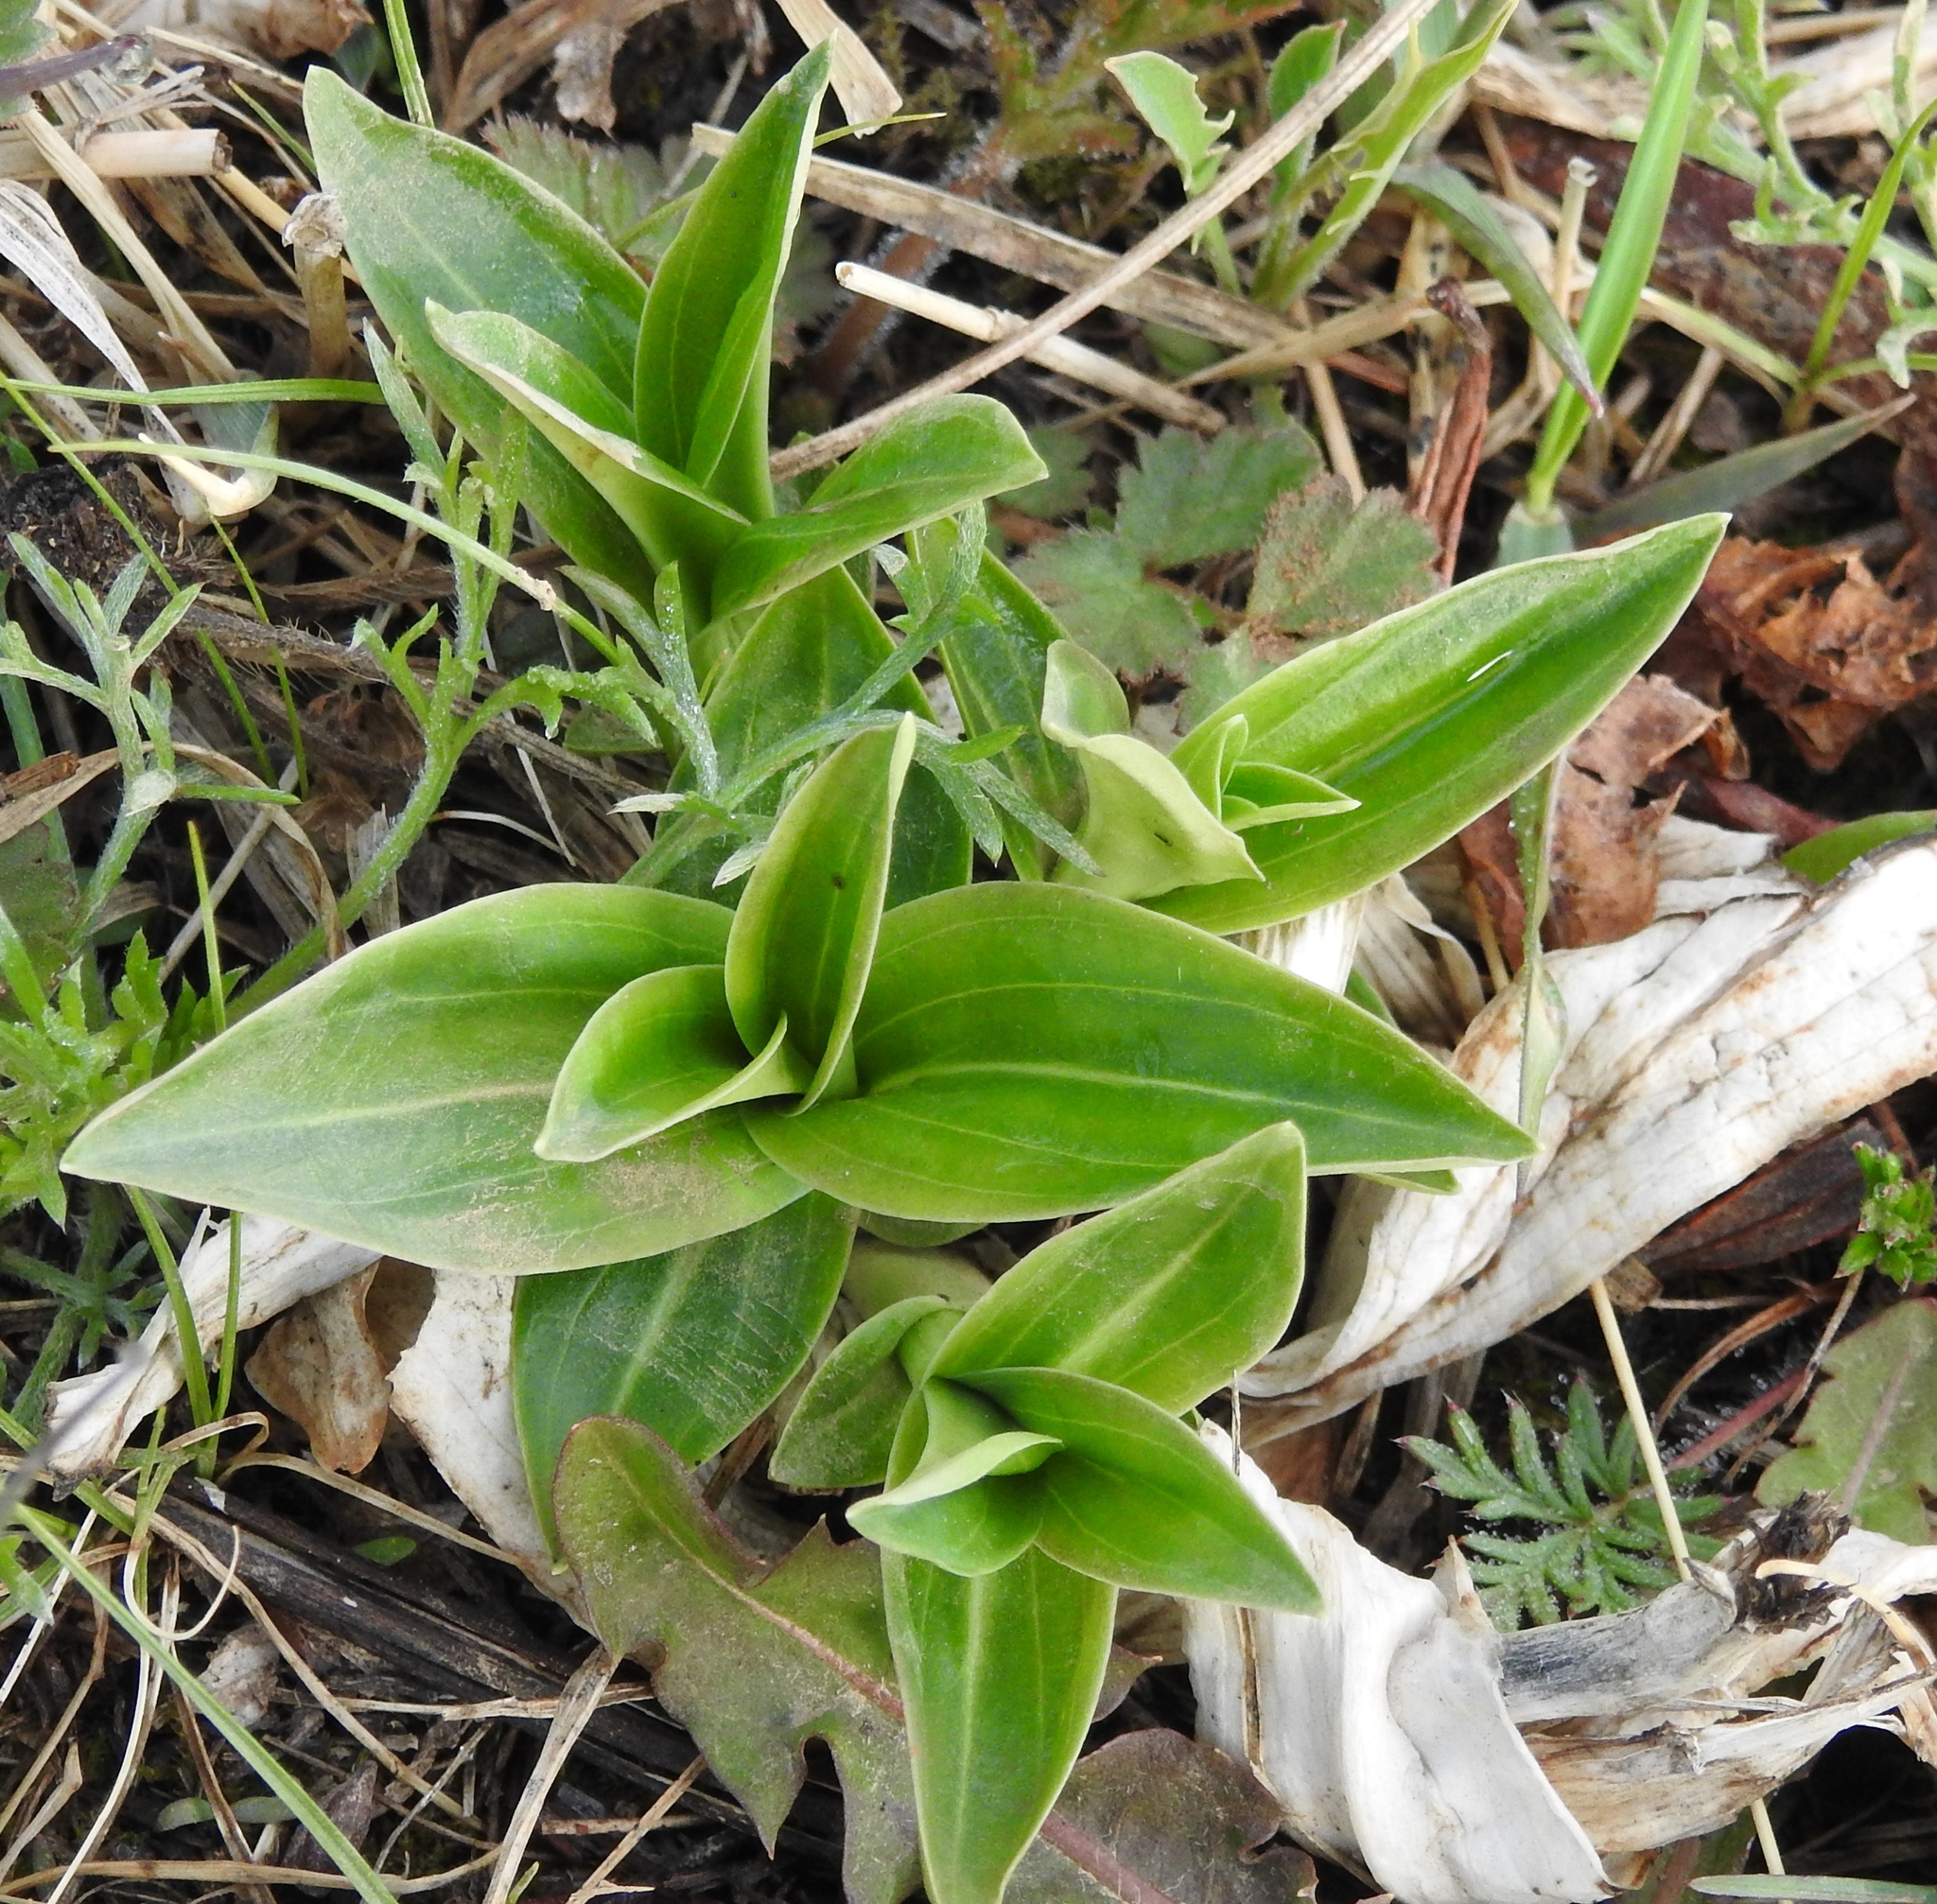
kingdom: Plantae
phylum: Tracheophyta
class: Magnoliopsida
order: Gentianales
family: Gentianaceae
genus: Gentiana
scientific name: Gentiana macrophylla
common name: Large-leaf gentian
